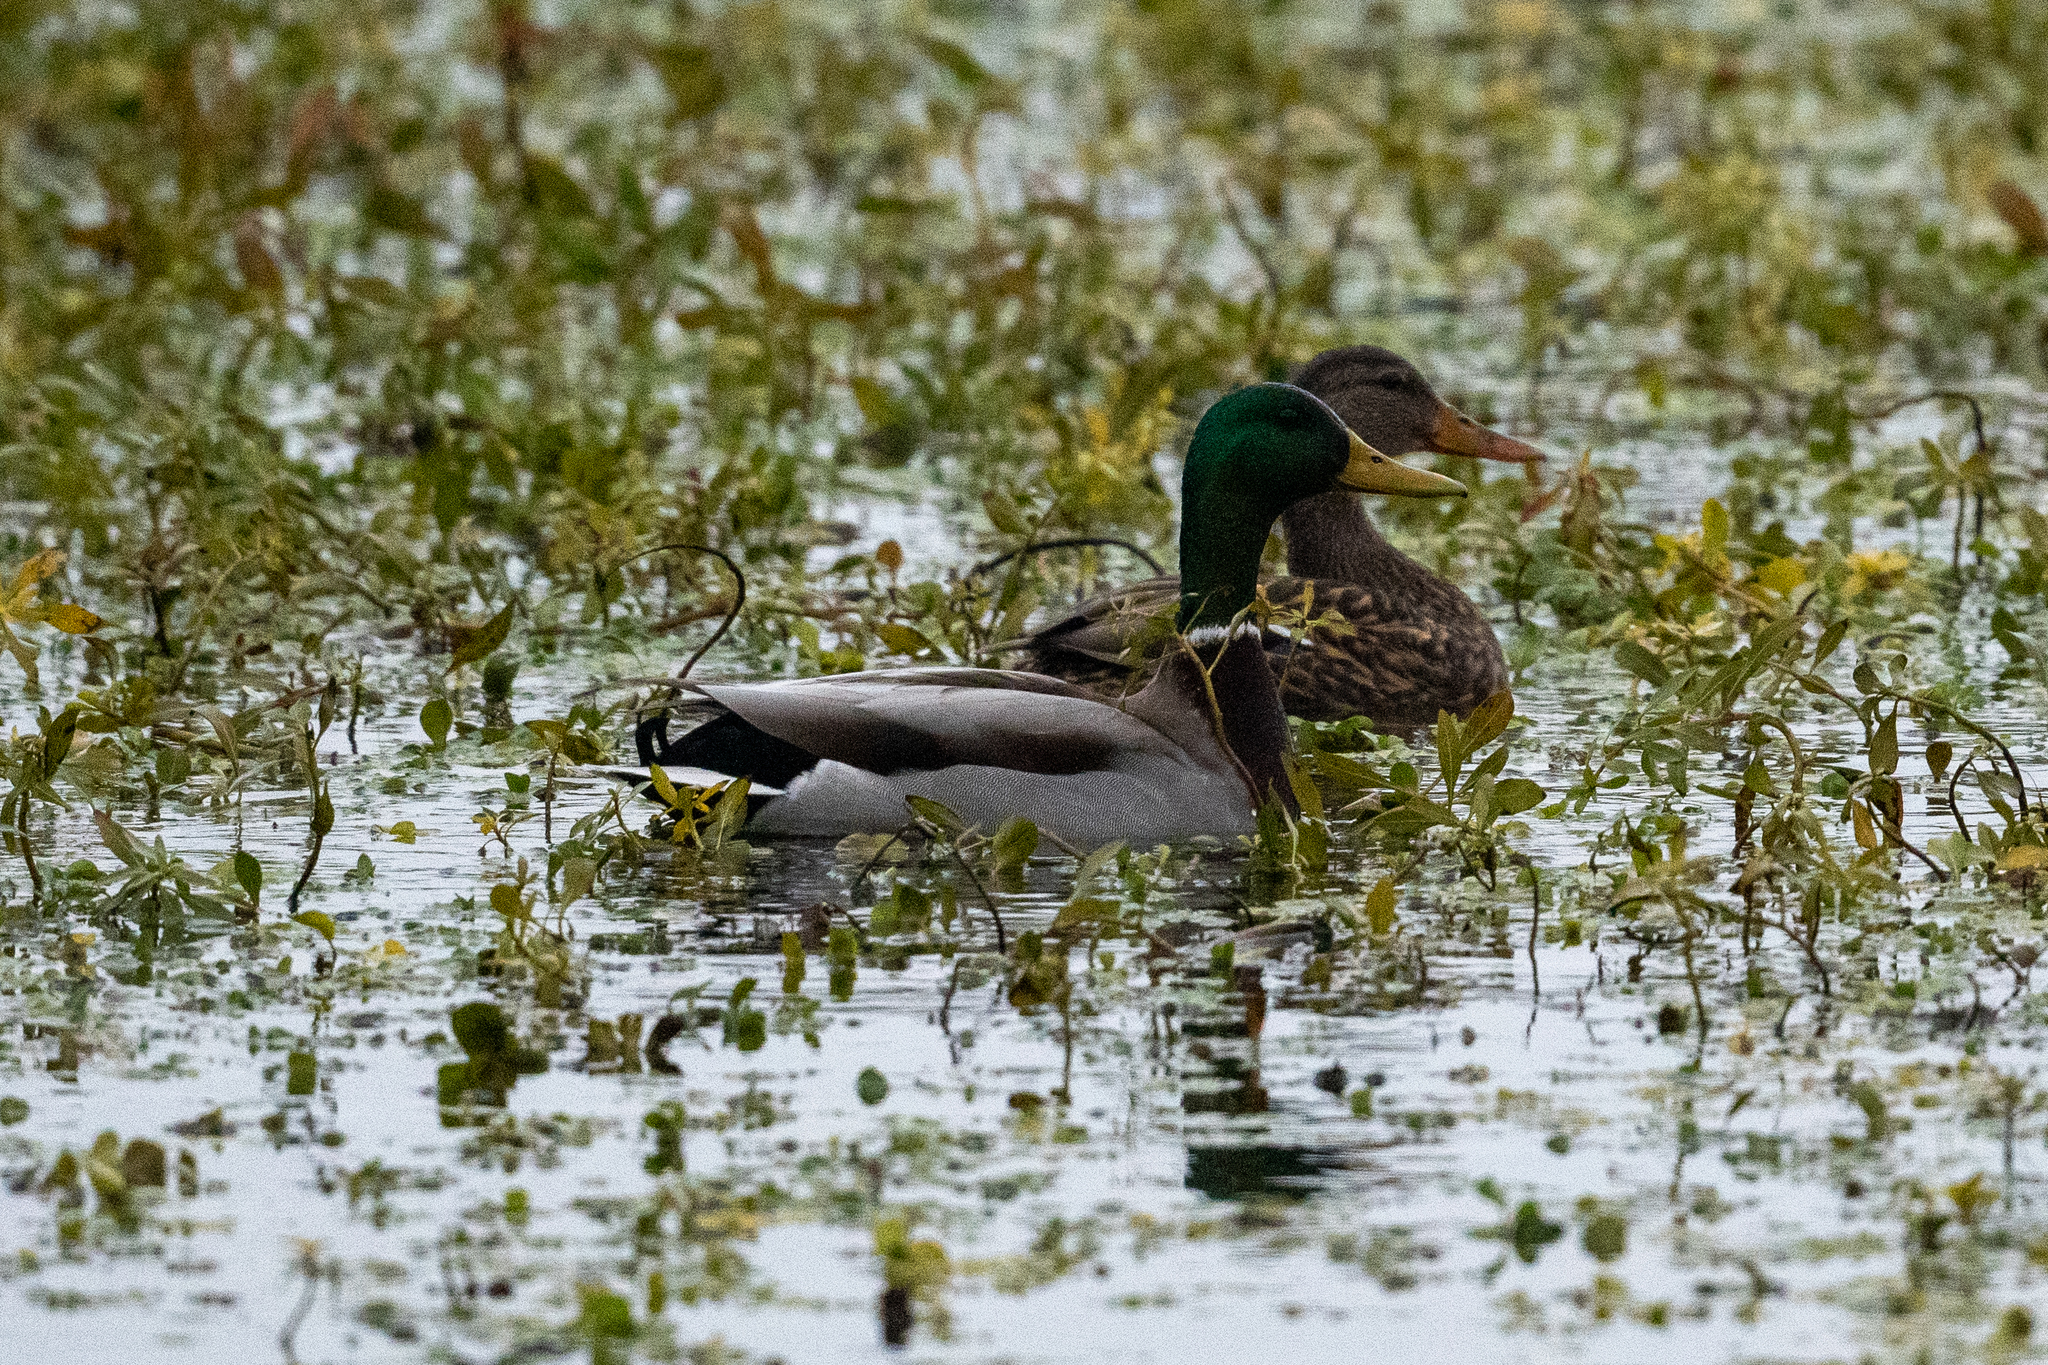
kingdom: Animalia
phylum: Chordata
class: Aves
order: Anseriformes
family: Anatidae
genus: Anas
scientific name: Anas platyrhynchos
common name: Mallard
